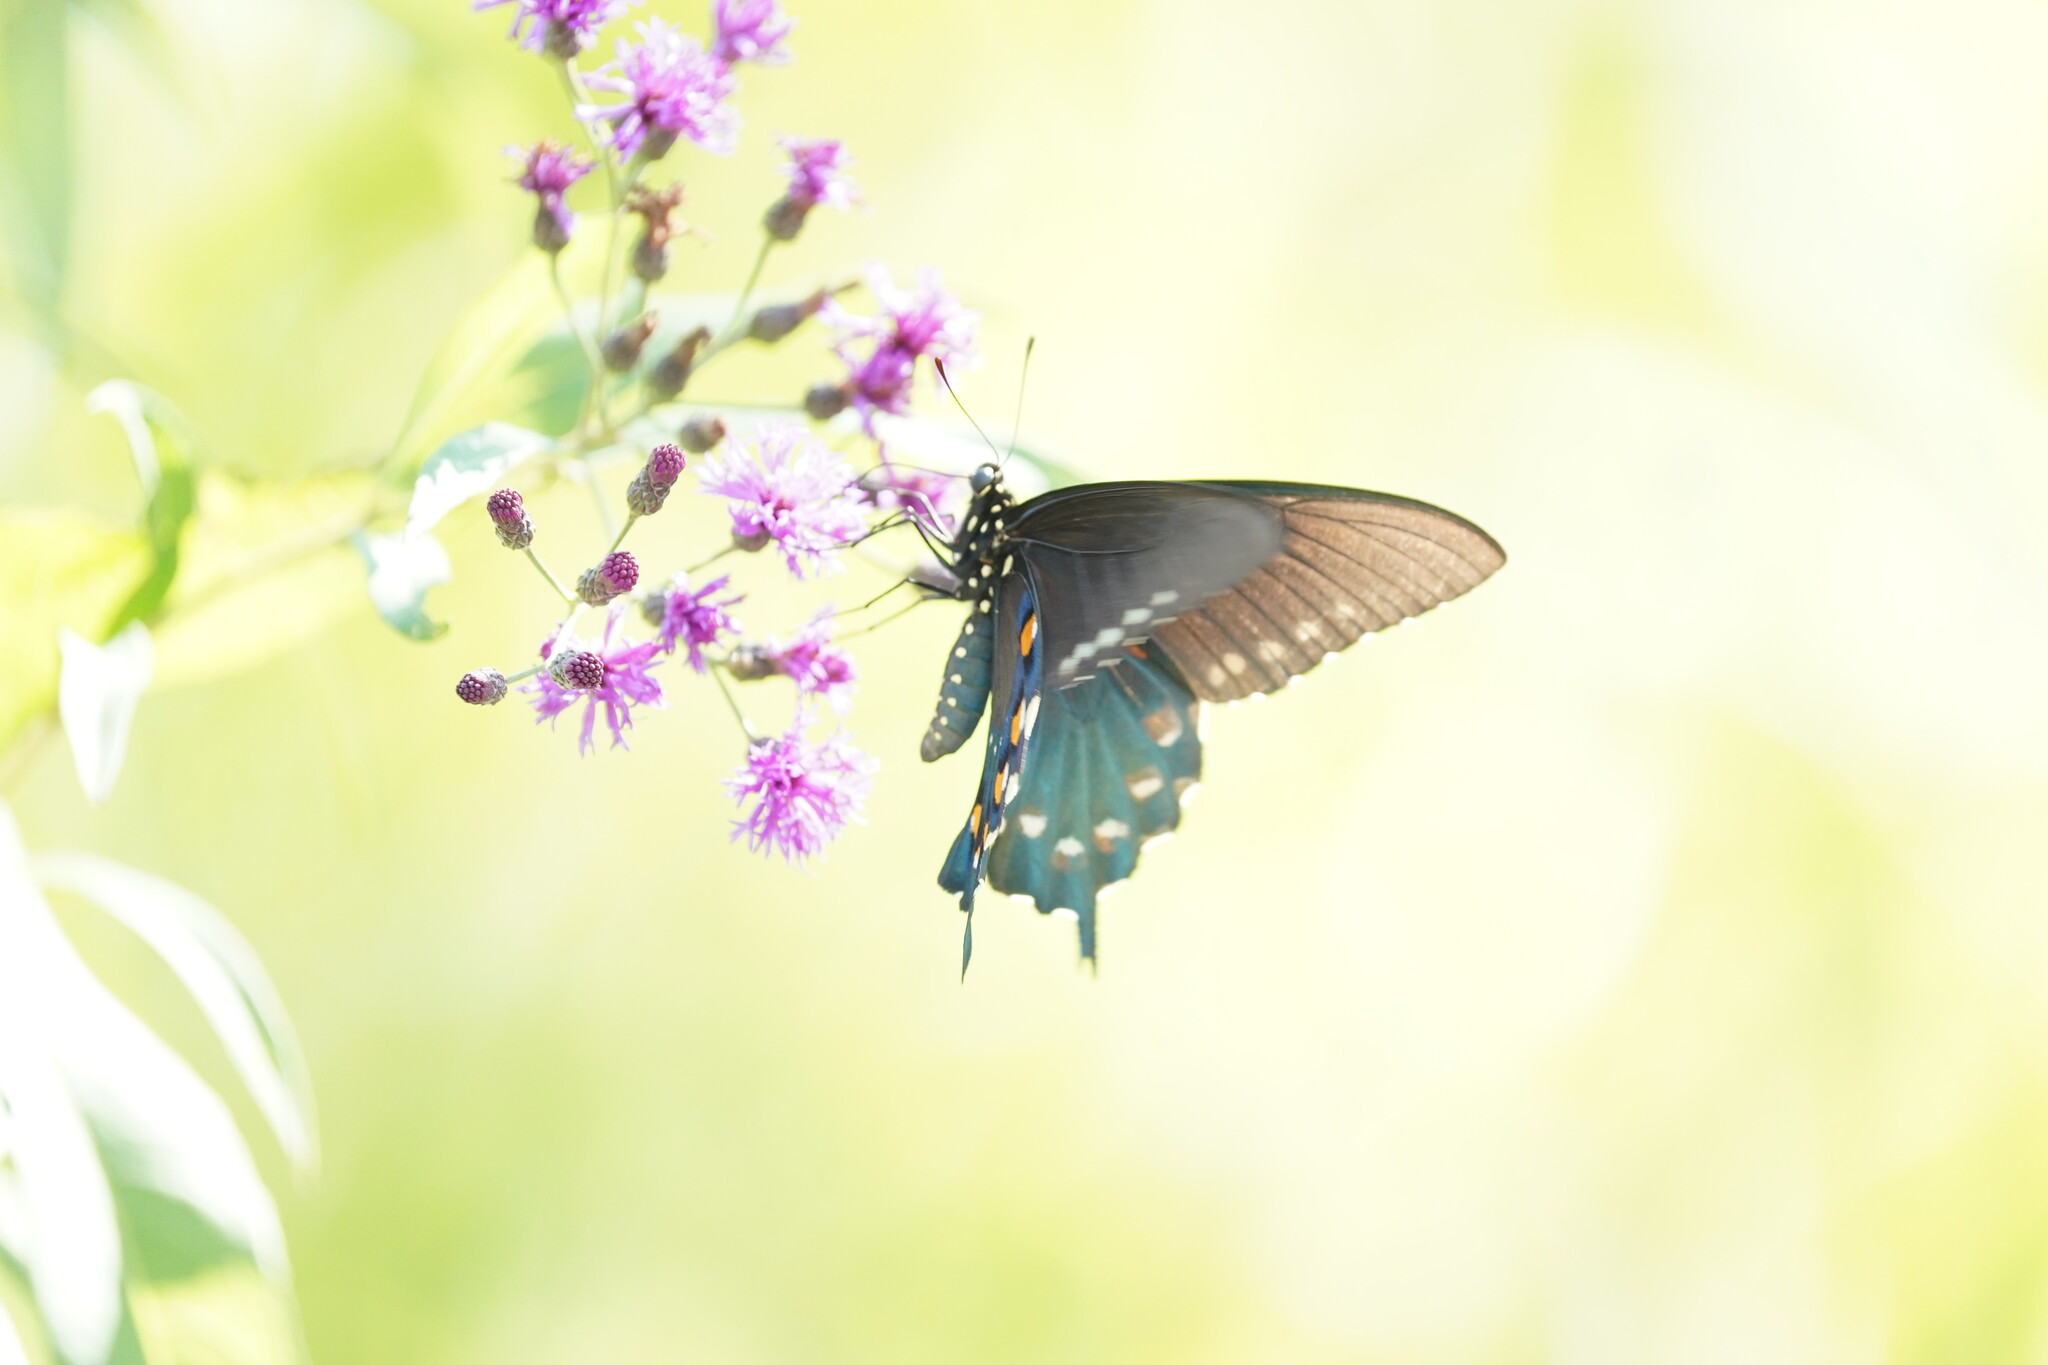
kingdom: Animalia
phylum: Arthropoda
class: Insecta
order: Lepidoptera
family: Papilionidae
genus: Battus
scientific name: Battus philenor
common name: Pipevine swallowtail
